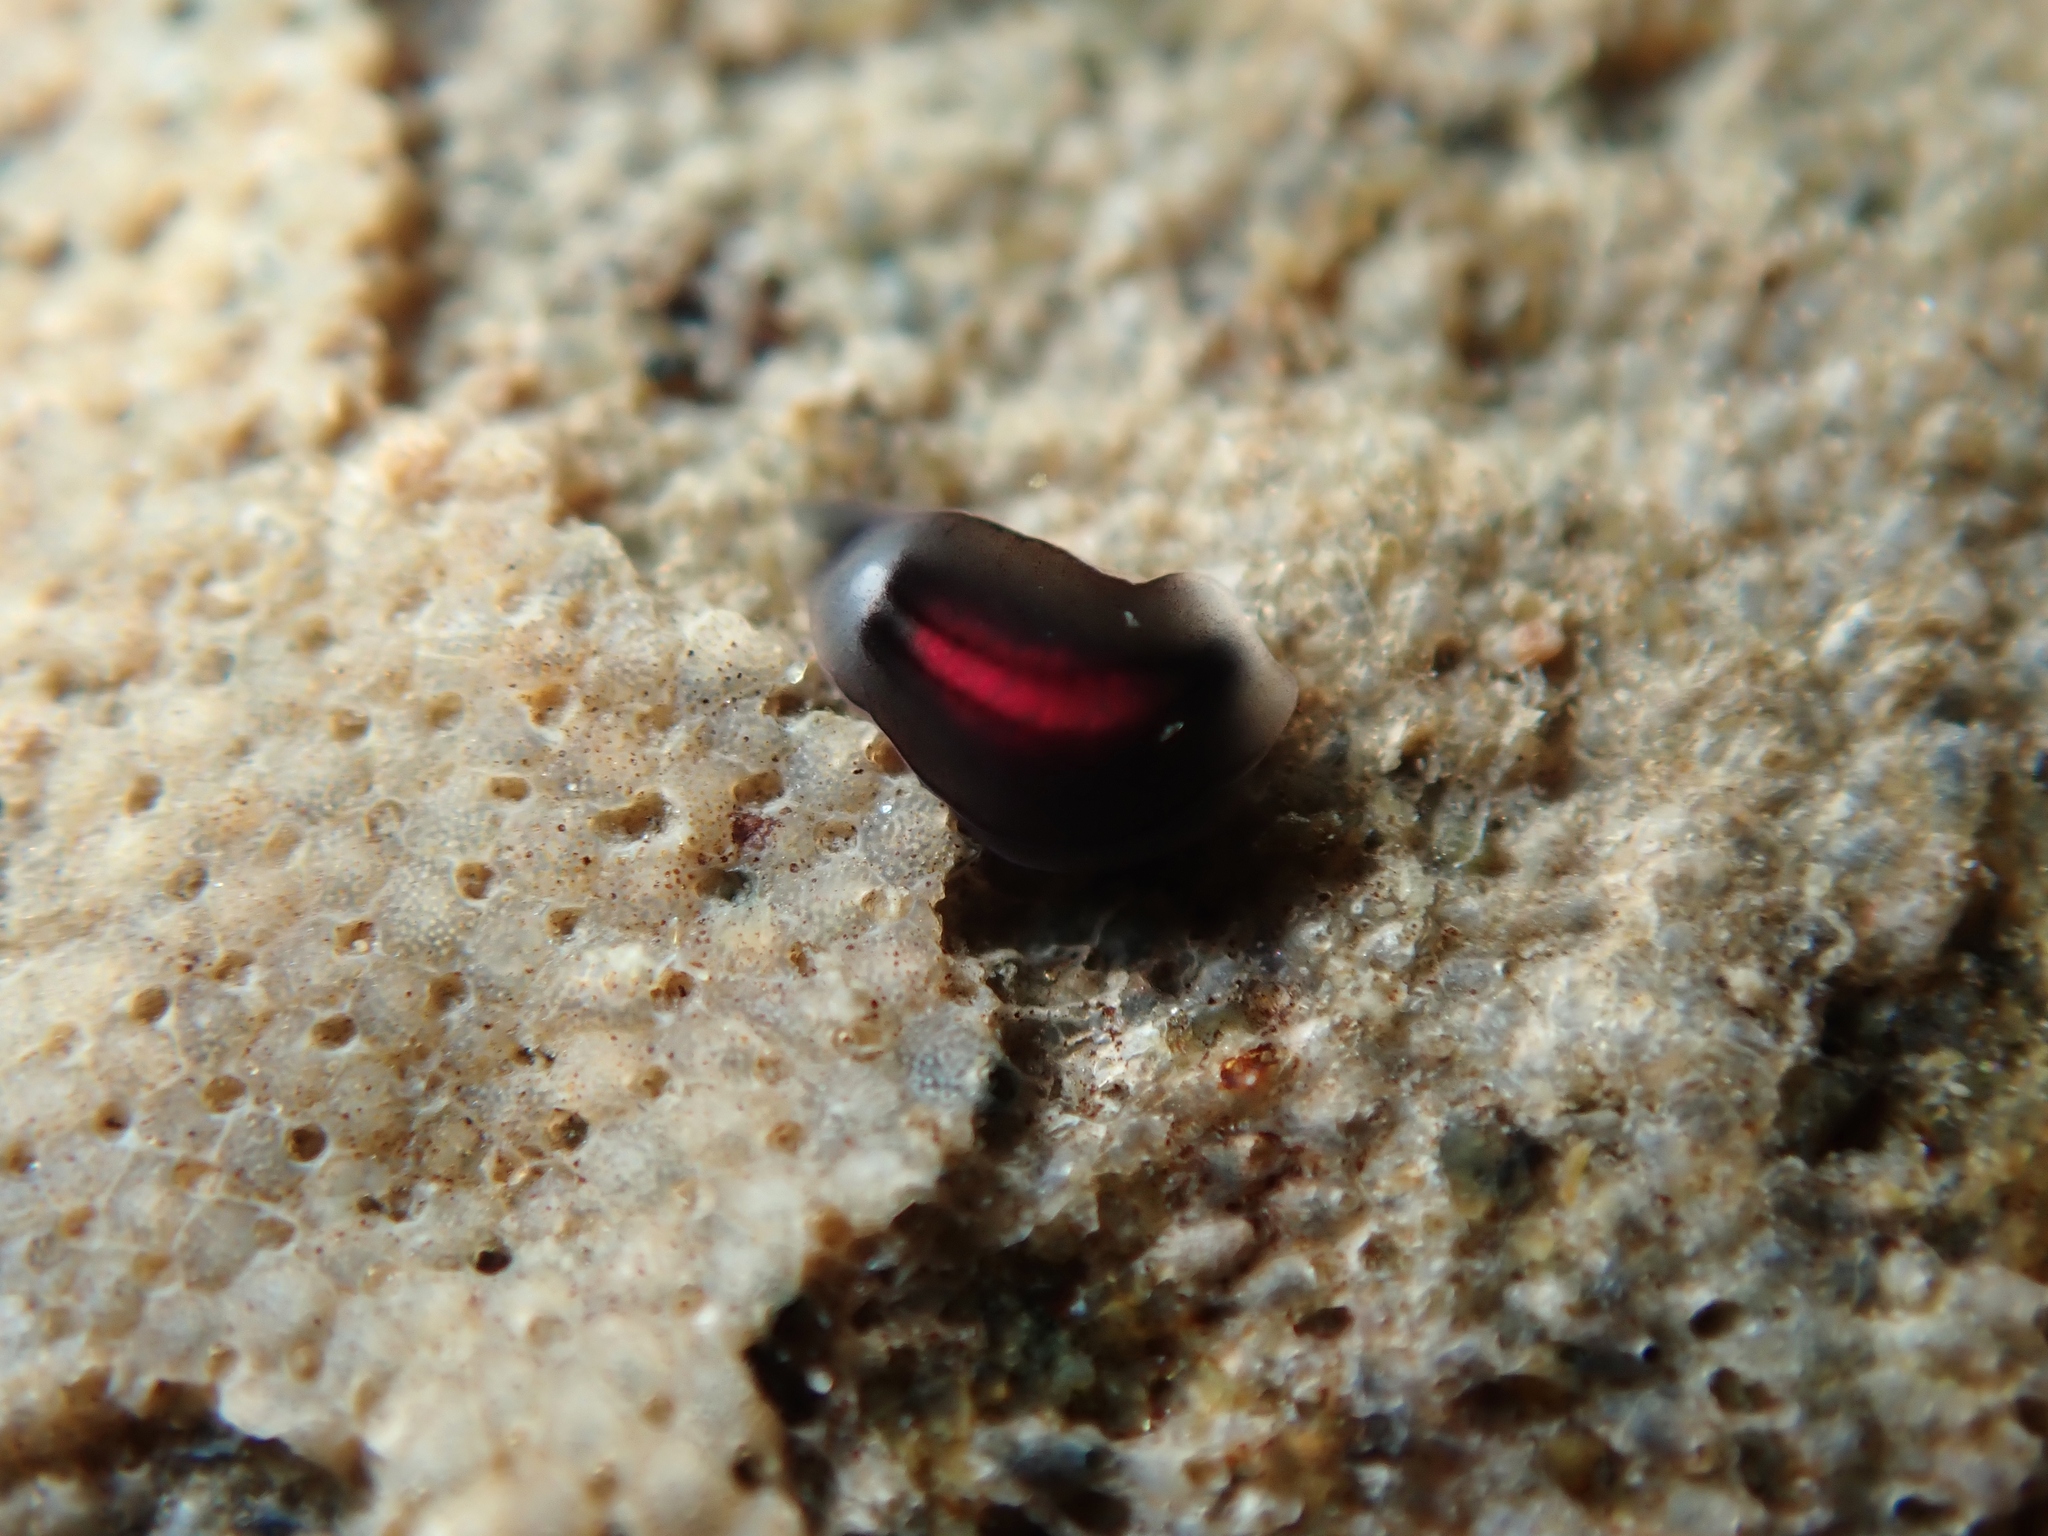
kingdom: Animalia
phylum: Mollusca
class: Gastropoda
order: Runcinida
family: Runcinidae
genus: Runcina
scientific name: Runcina katipoides
